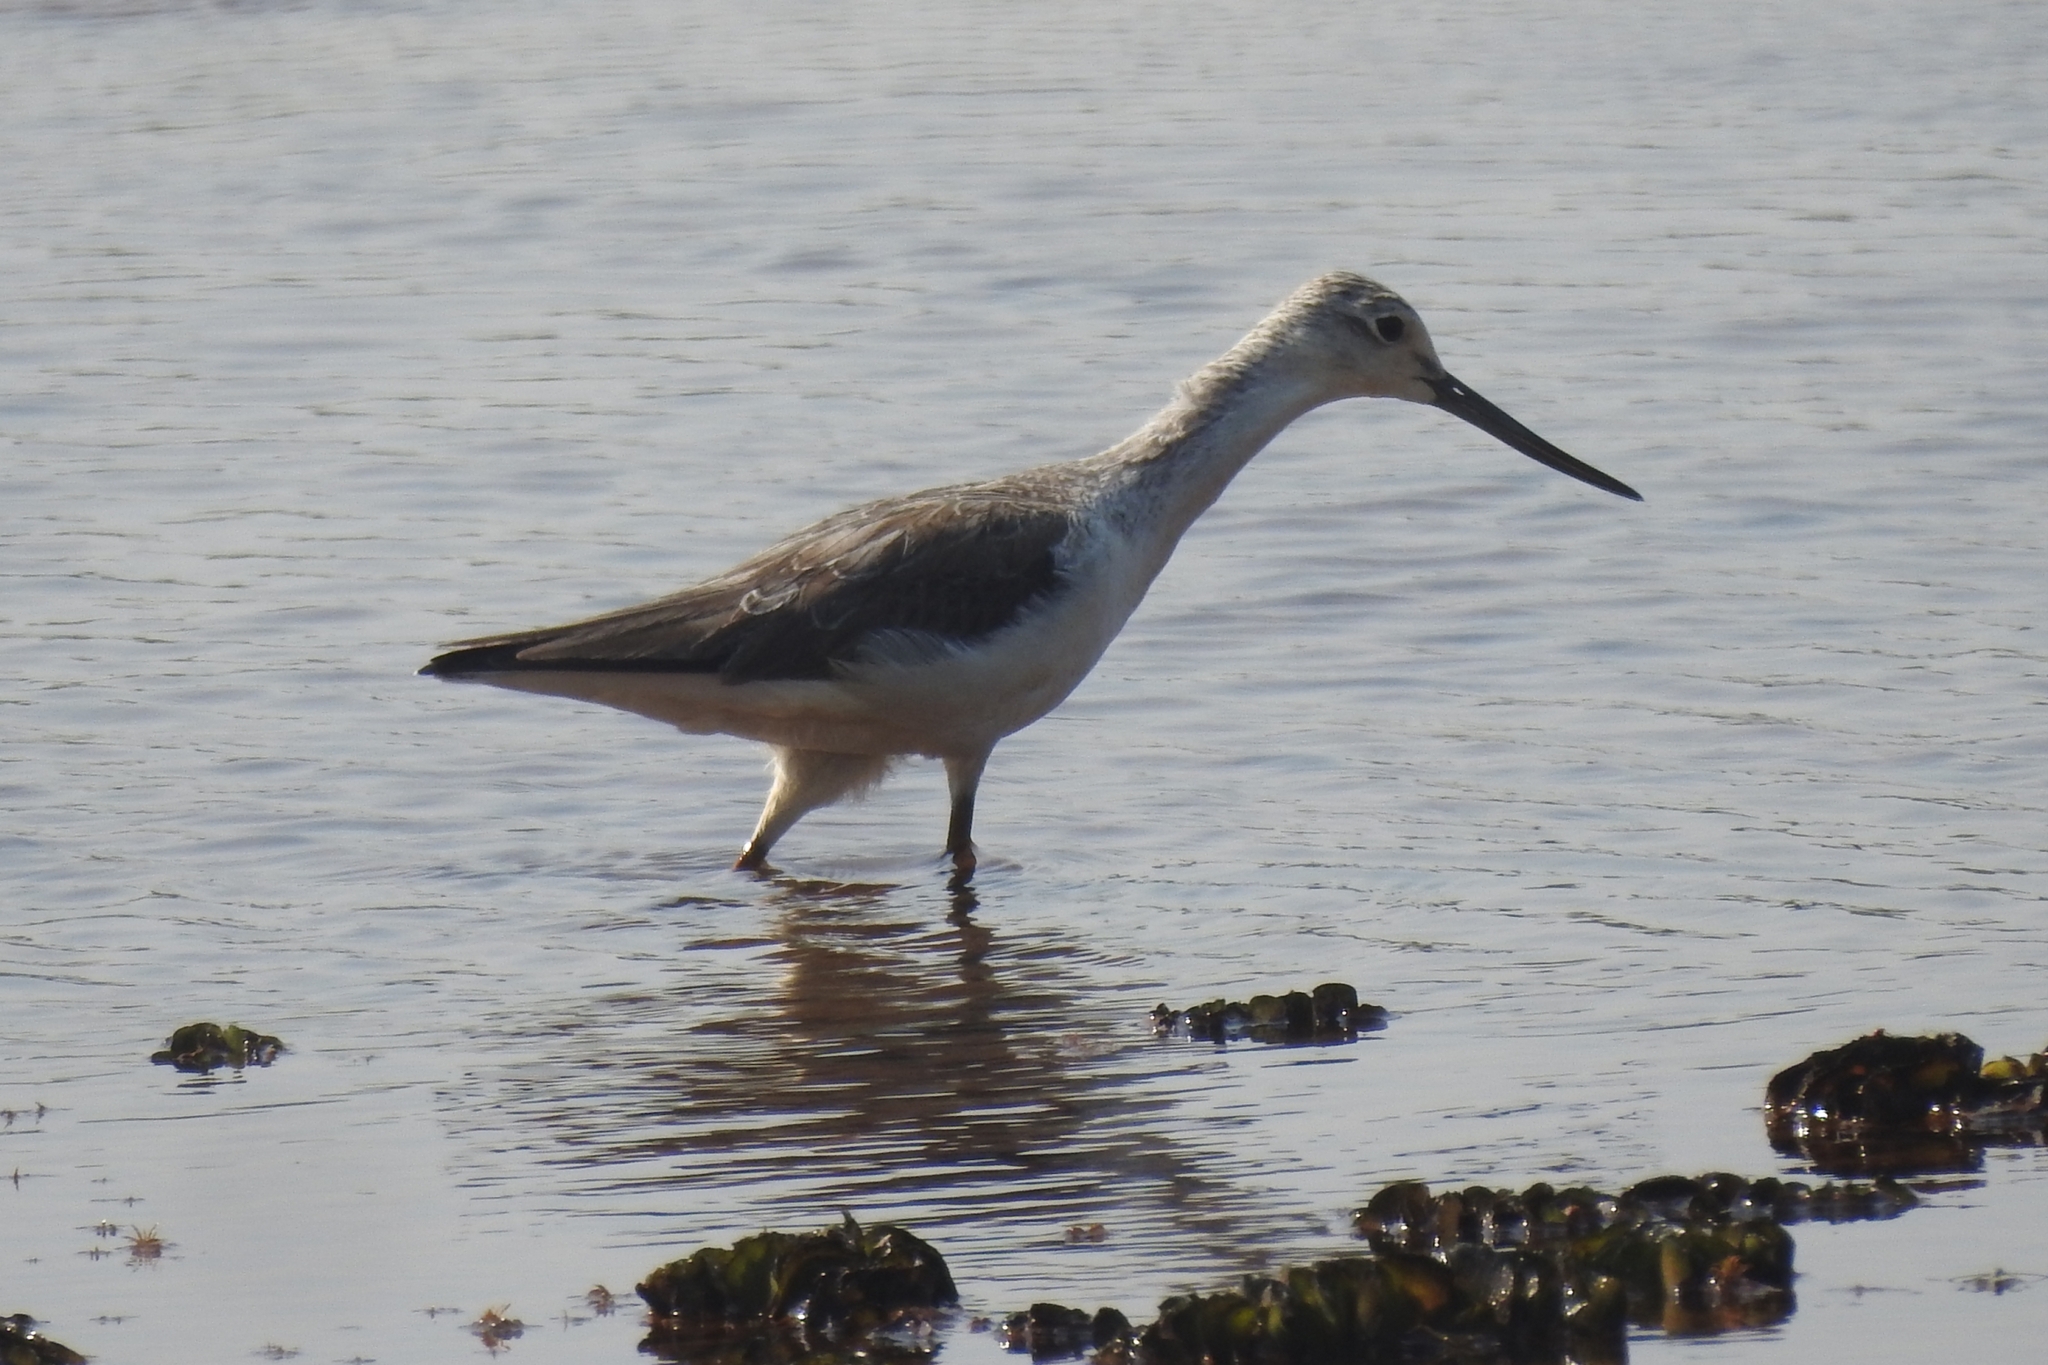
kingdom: Animalia
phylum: Chordata
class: Aves
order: Charadriiformes
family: Scolopacidae
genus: Tringa
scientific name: Tringa nebularia
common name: Common greenshank
